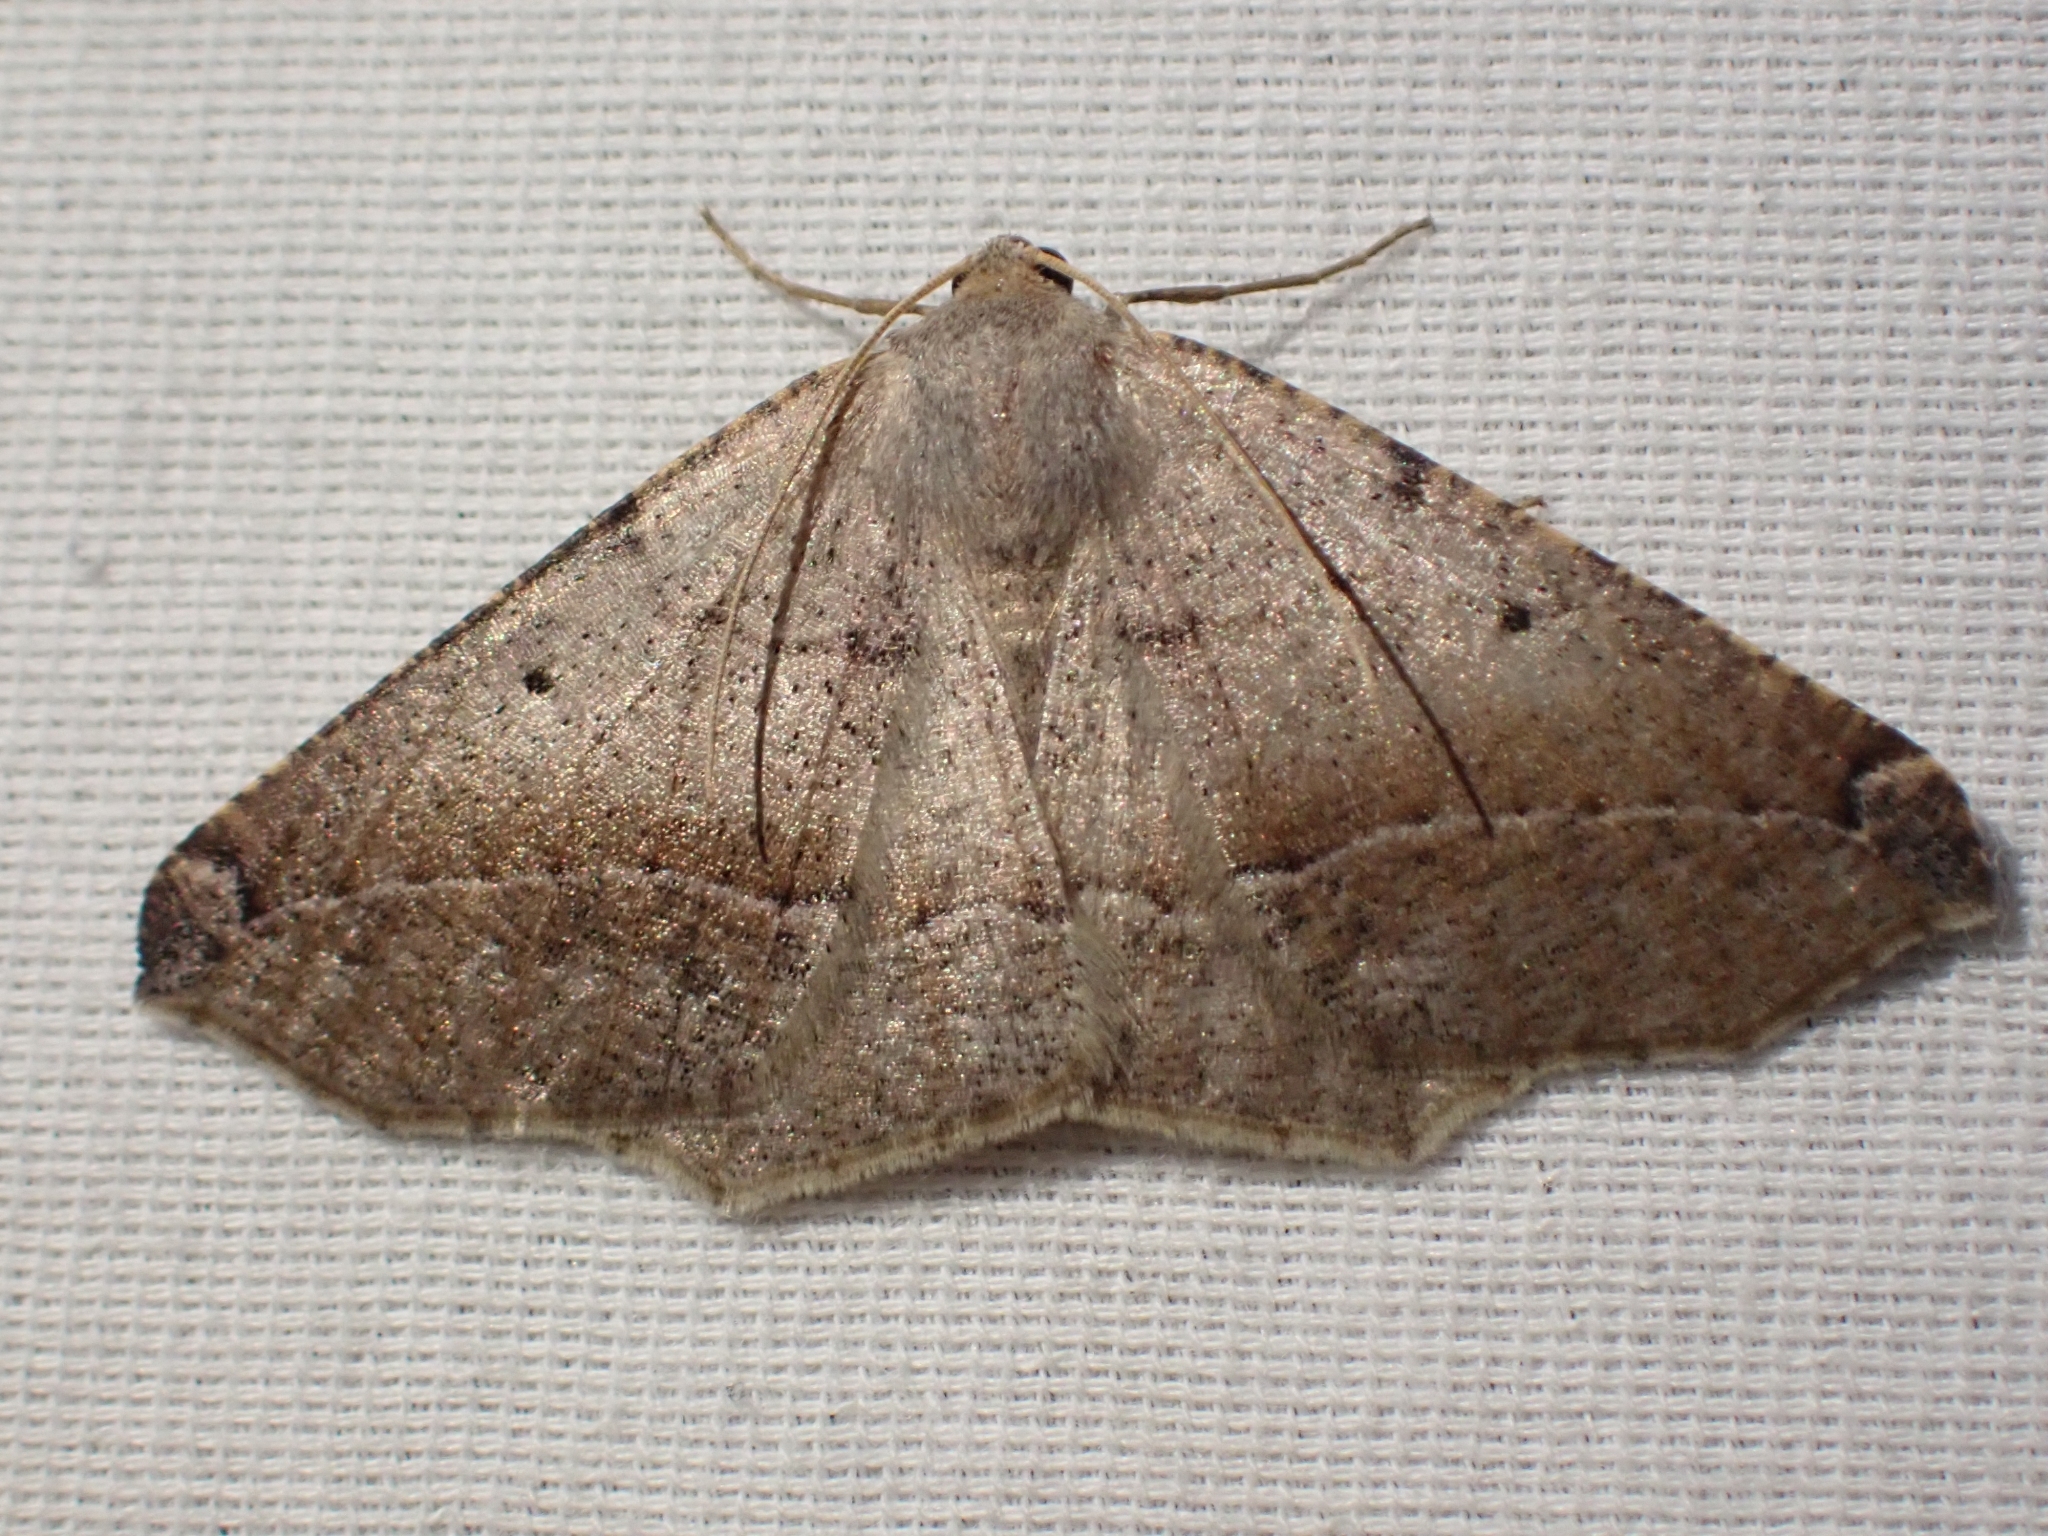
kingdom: Animalia
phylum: Arthropoda
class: Insecta
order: Lepidoptera
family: Geometridae
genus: Prochoerodes
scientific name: Prochoerodes forficaria
